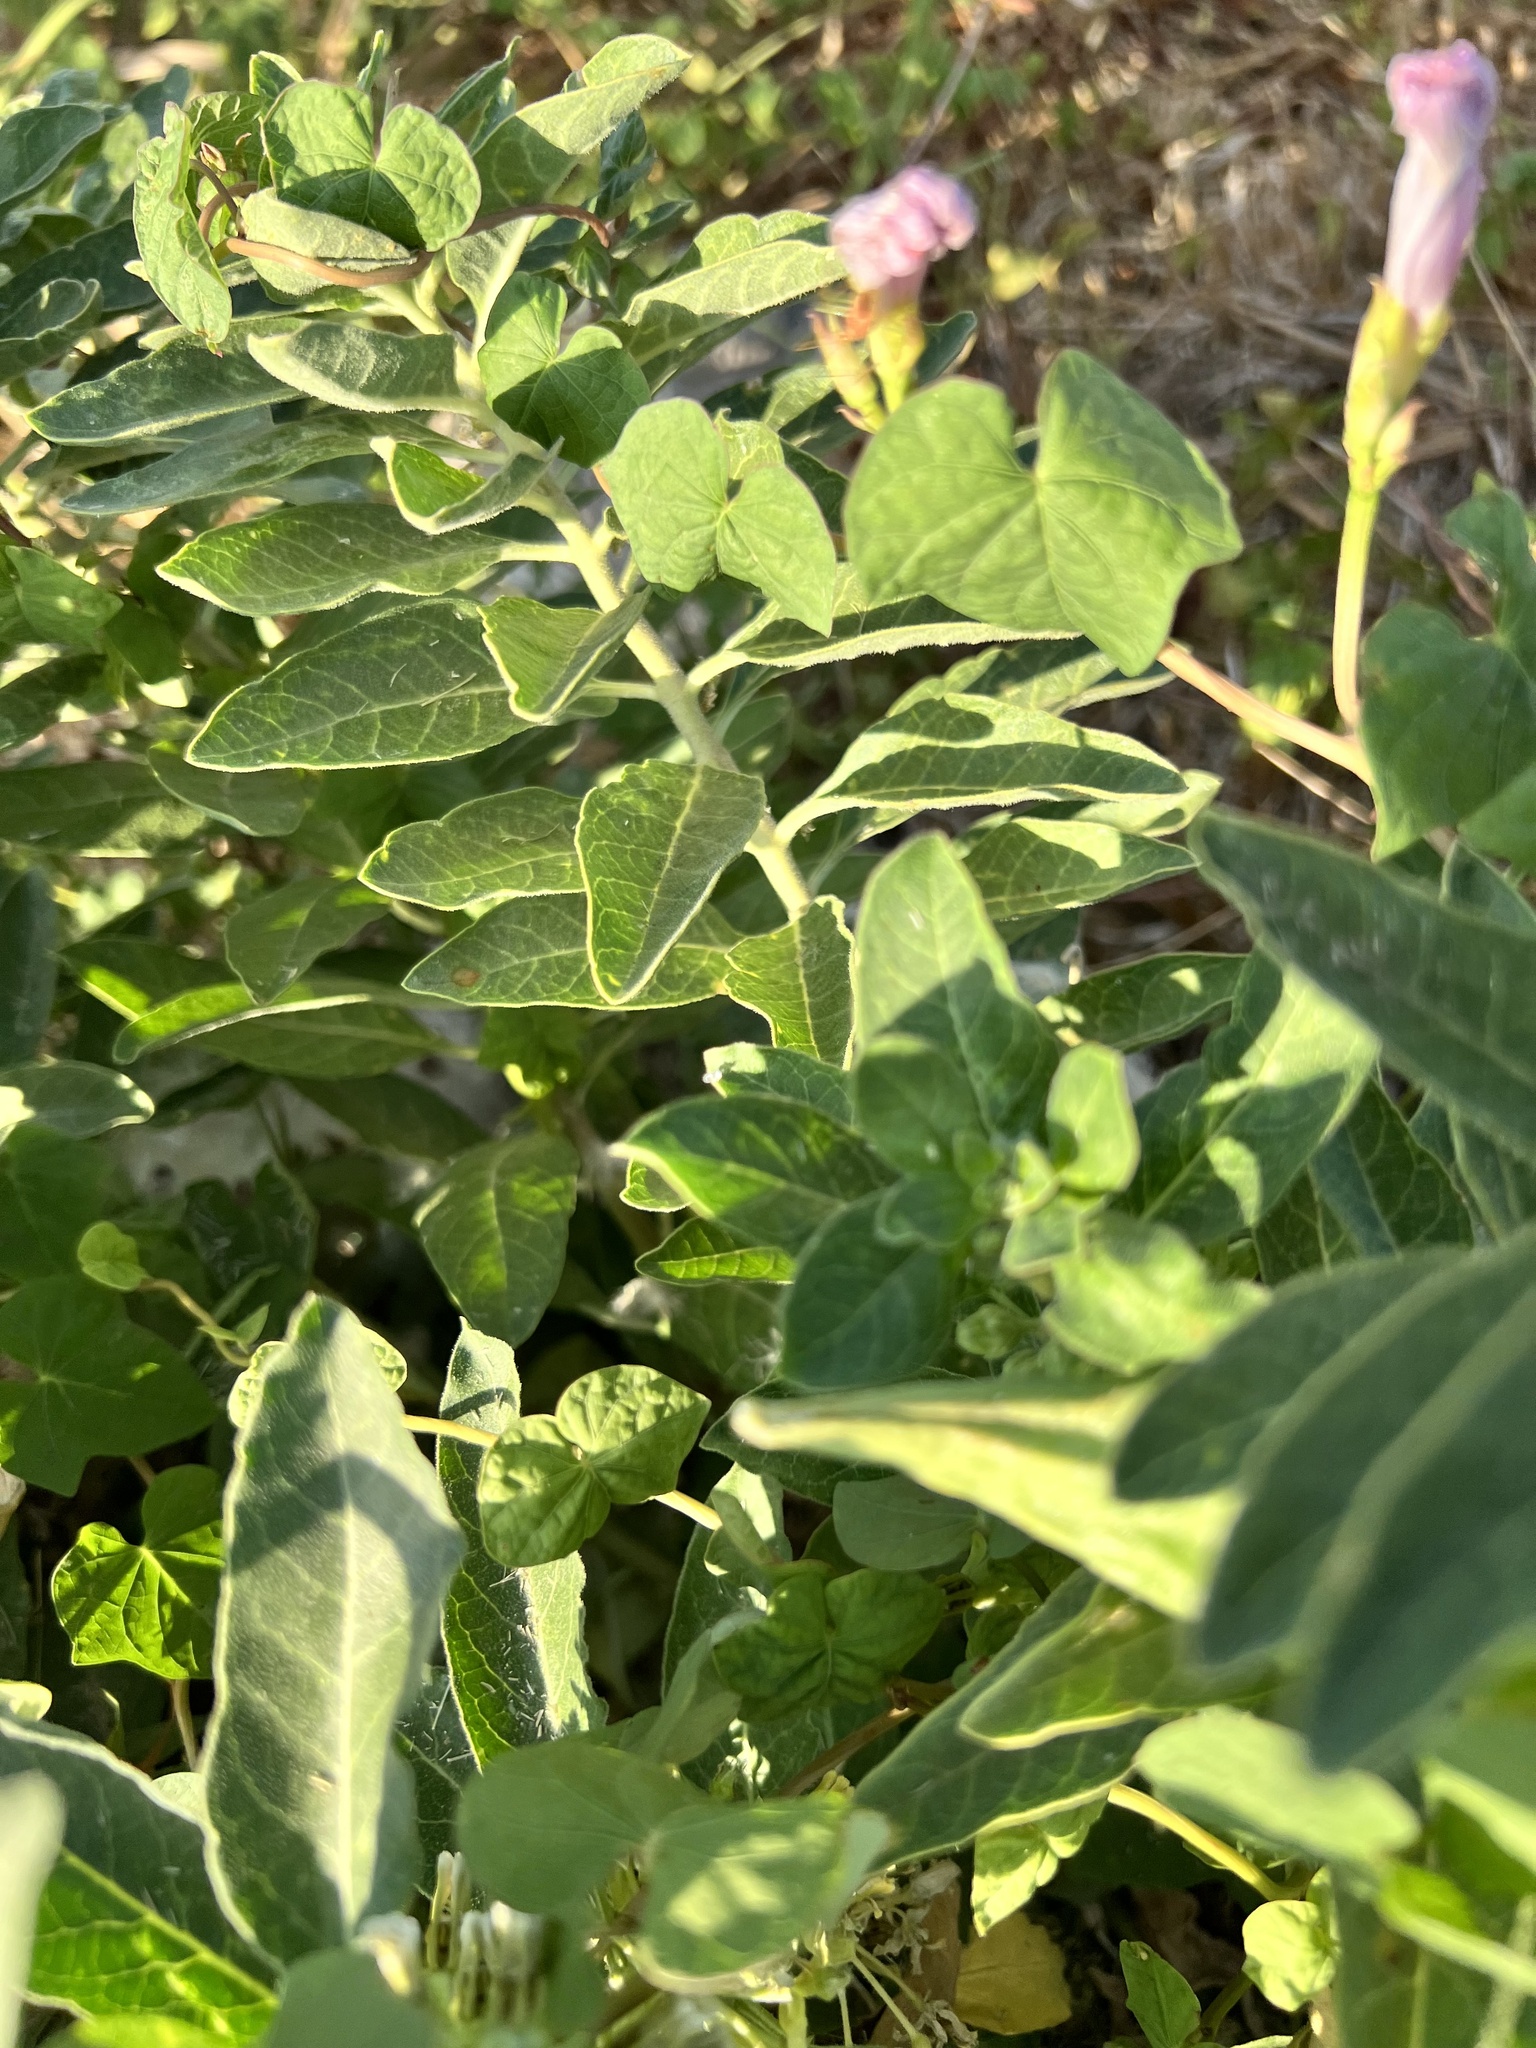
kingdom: Plantae
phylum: Tracheophyta
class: Magnoliopsida
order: Gentianales
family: Apocynaceae
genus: Asclepias
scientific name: Asclepias oenotheroides
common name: Zizotes milkweed
